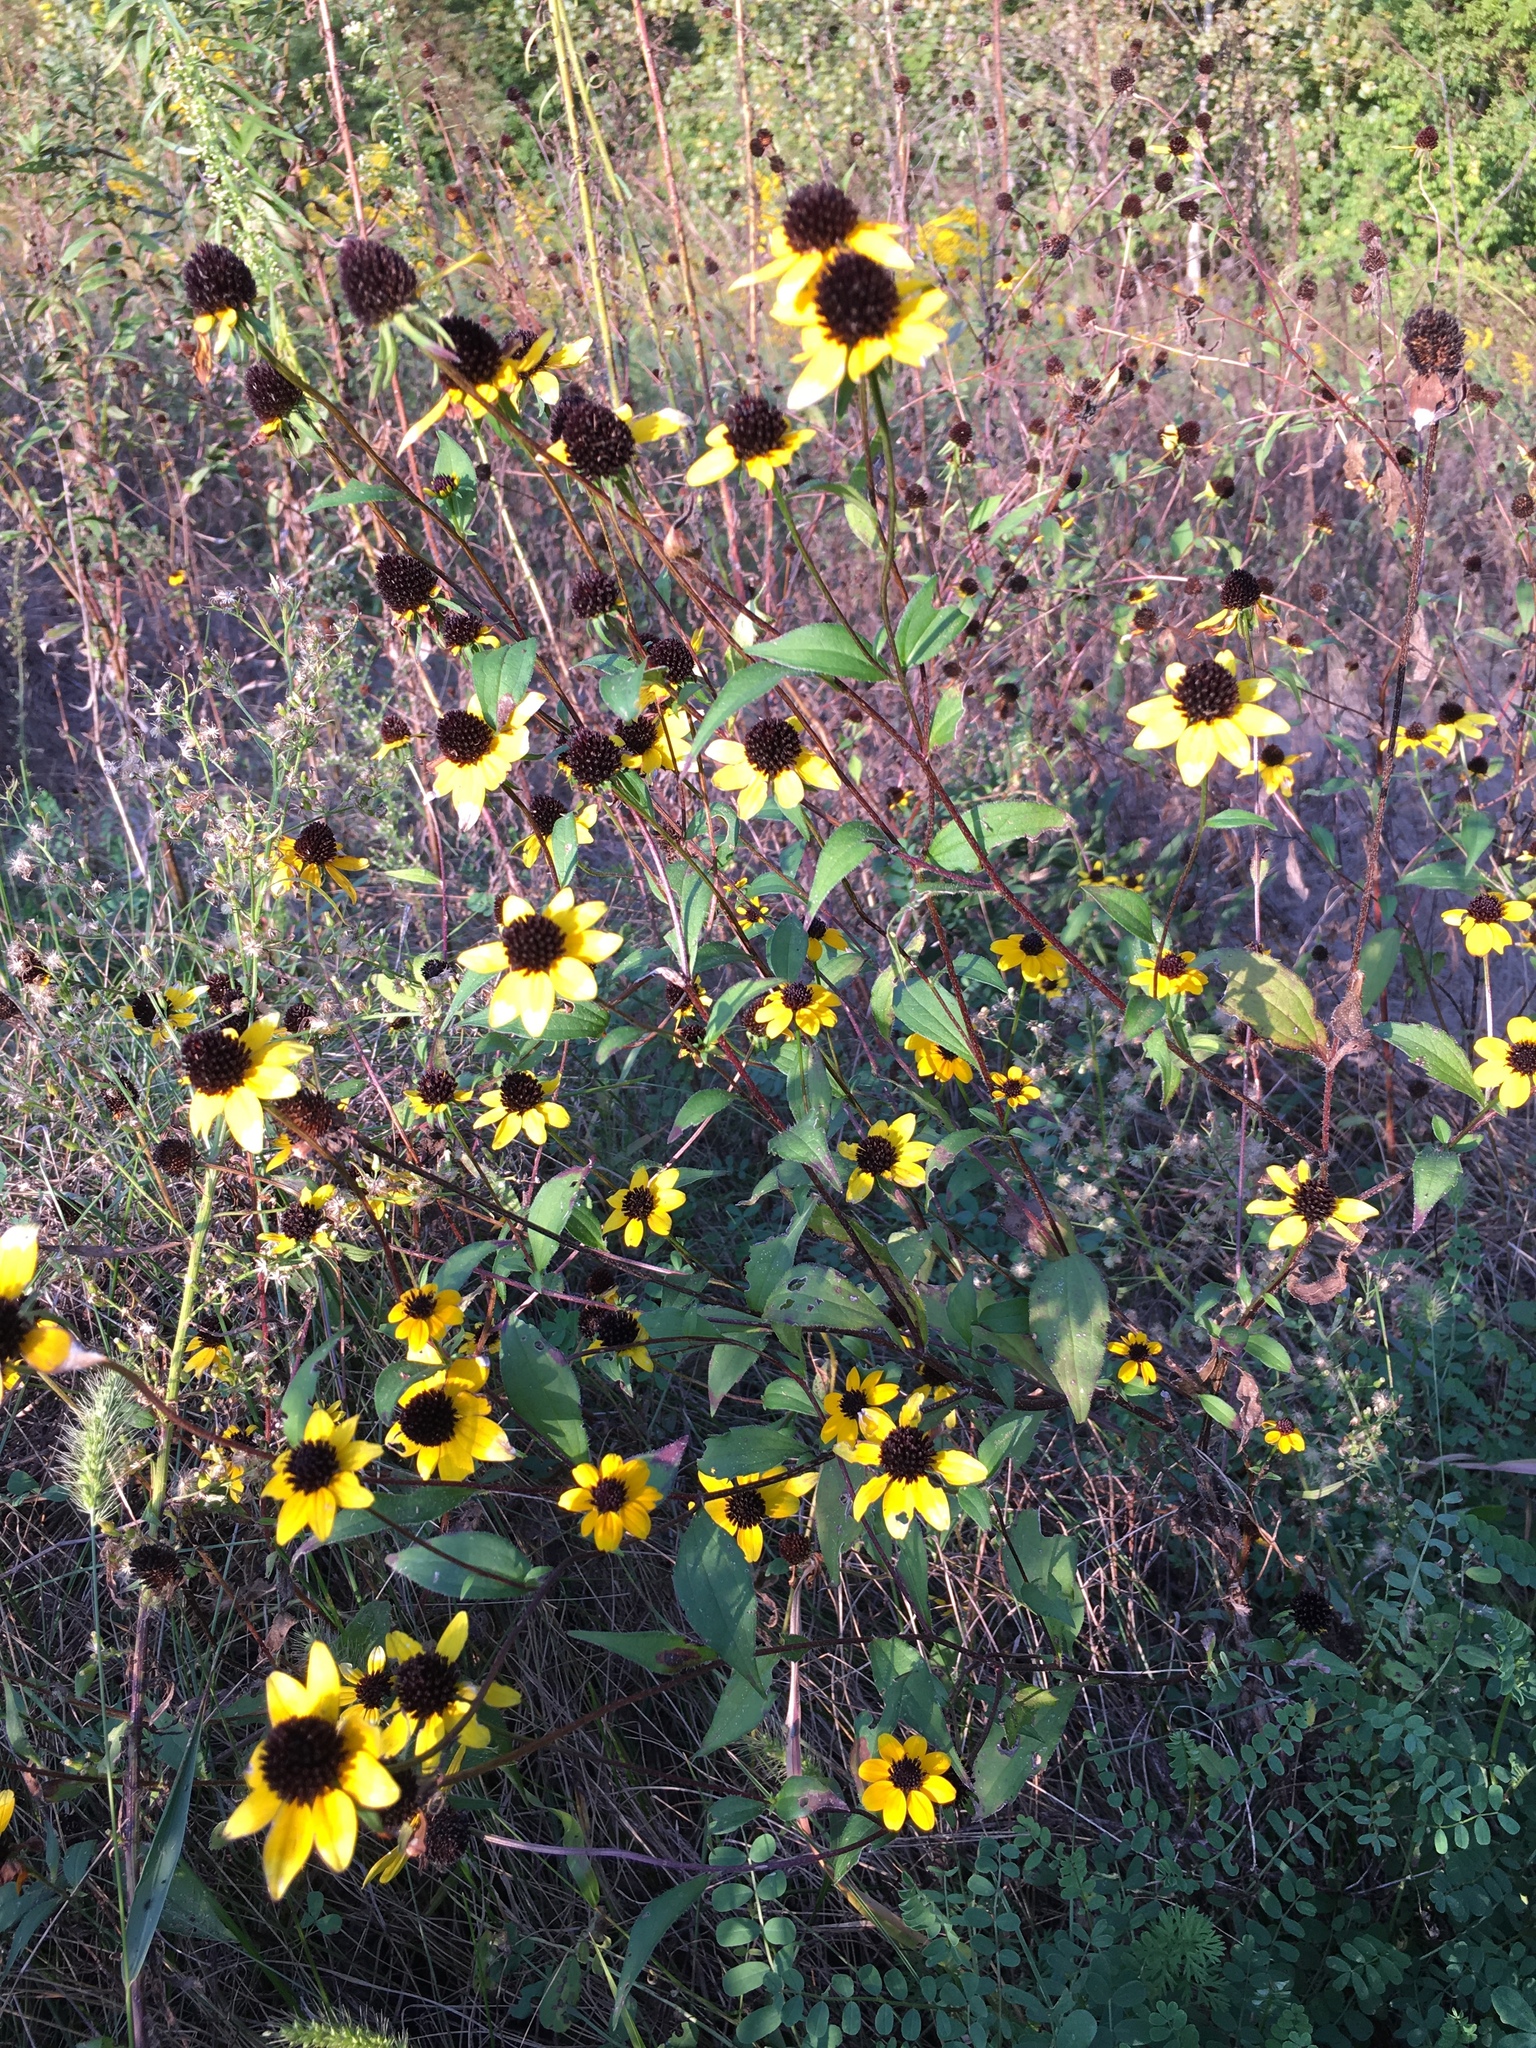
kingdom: Plantae
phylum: Tracheophyta
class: Magnoliopsida
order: Asterales
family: Asteraceae
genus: Rudbeckia
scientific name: Rudbeckia triloba
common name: Thin-leaved coneflower
